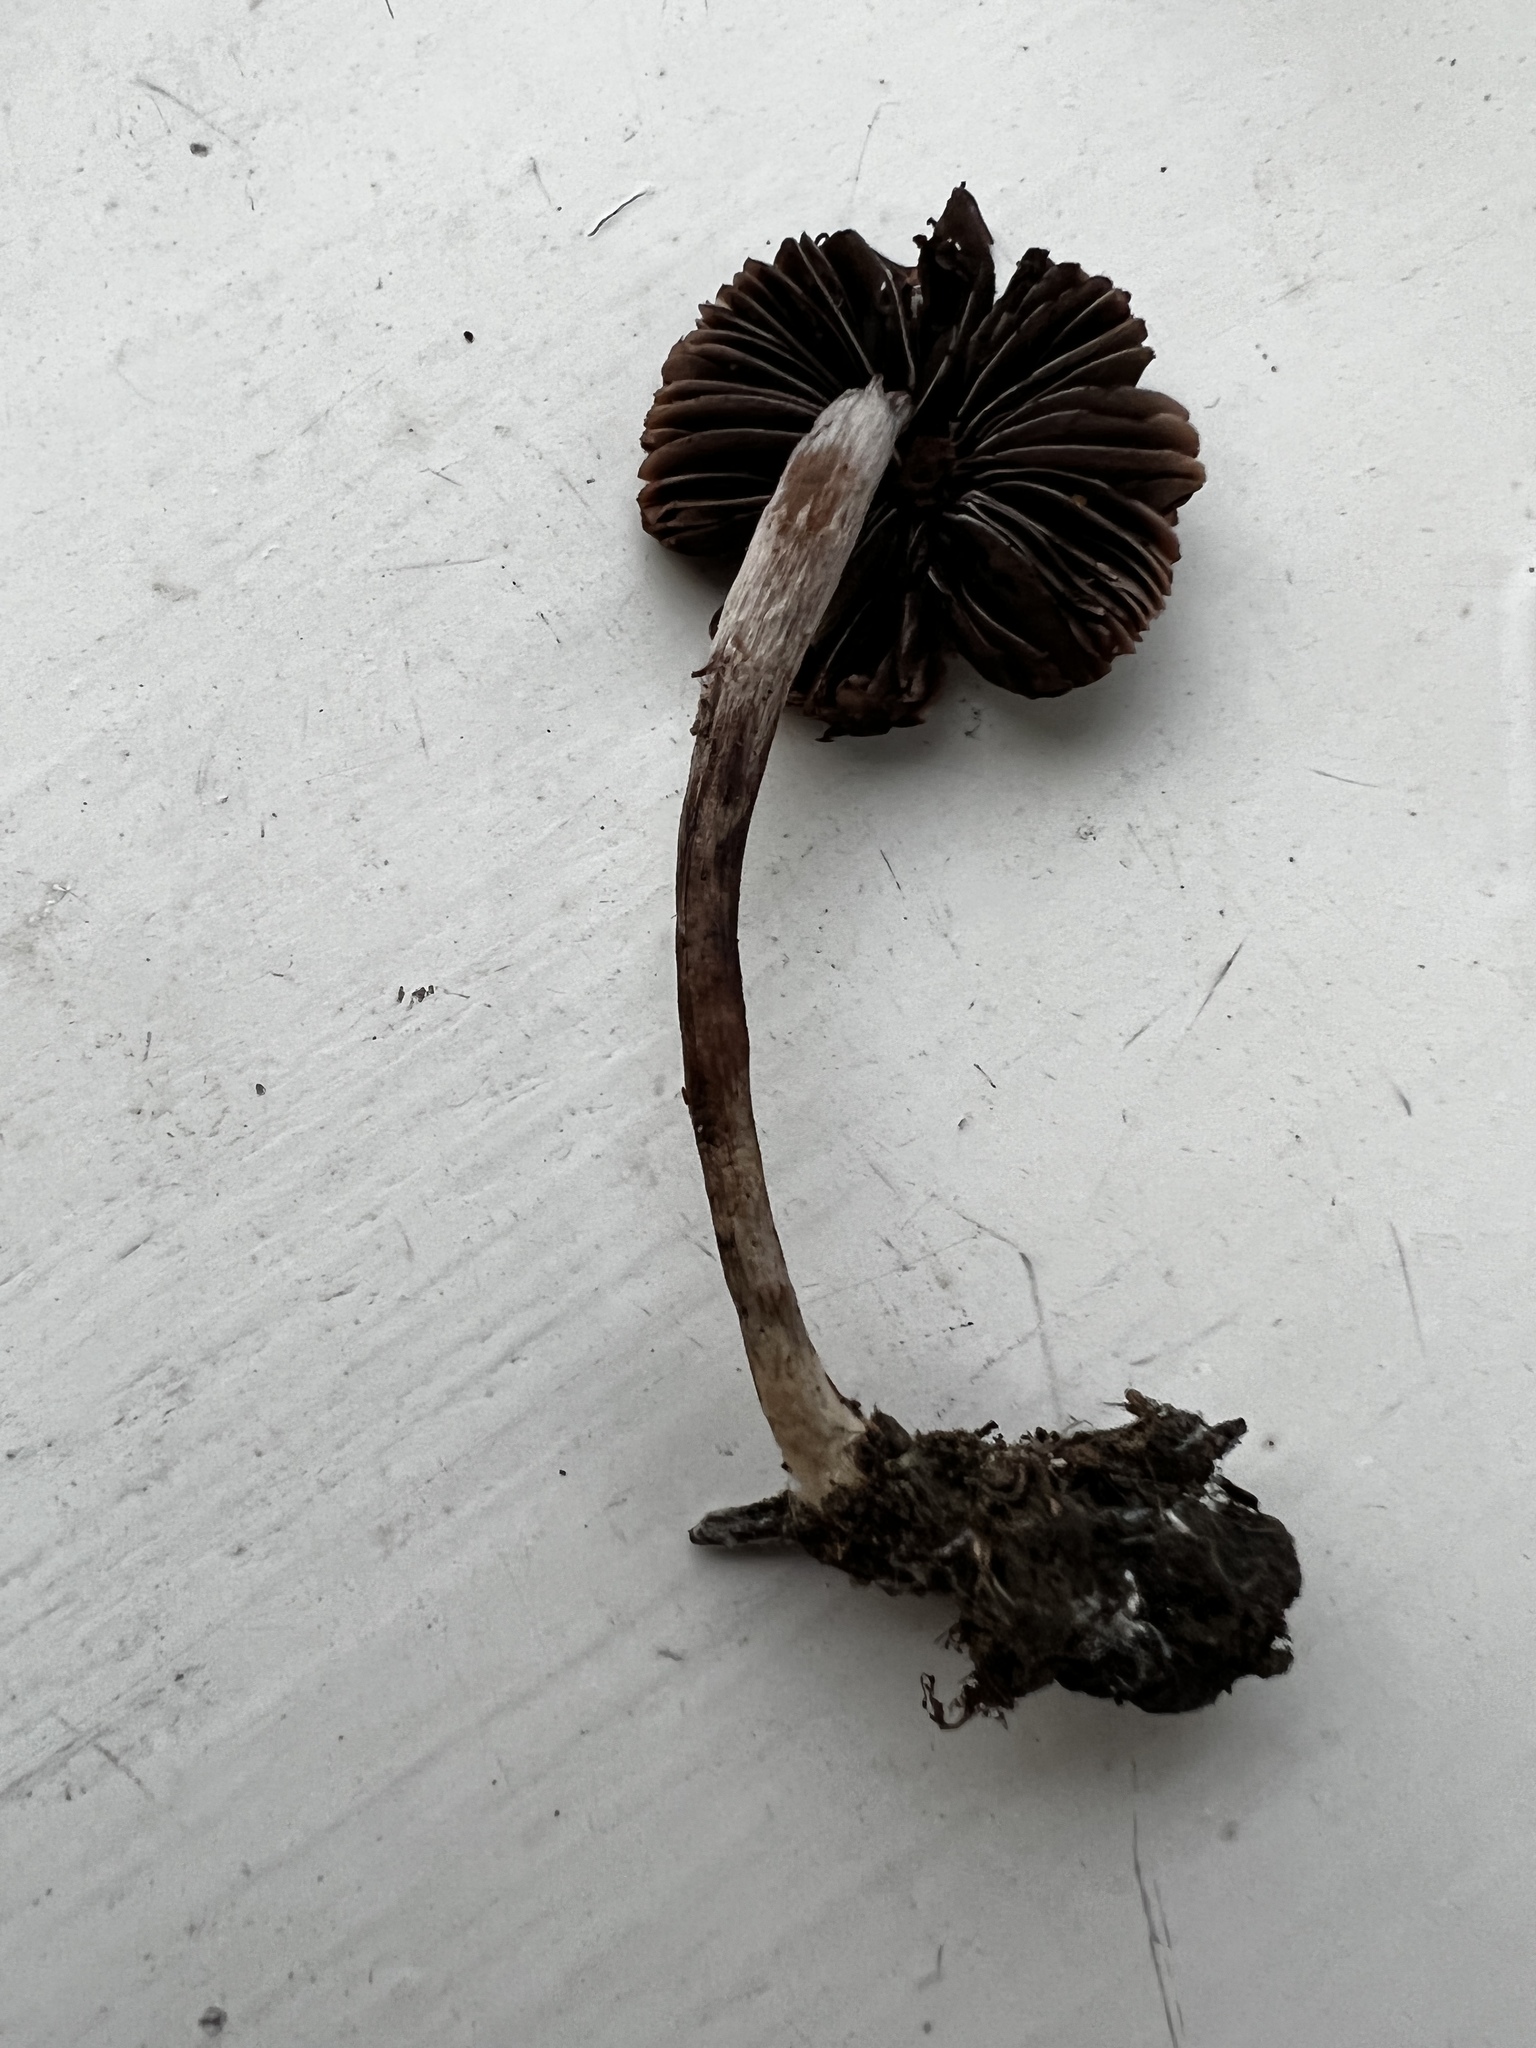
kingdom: Fungi
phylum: Basidiomycota
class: Agaricomycetes
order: Agaricales
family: Psathyrellaceae
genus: Psathyrella
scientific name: Psathyrella bipellis
